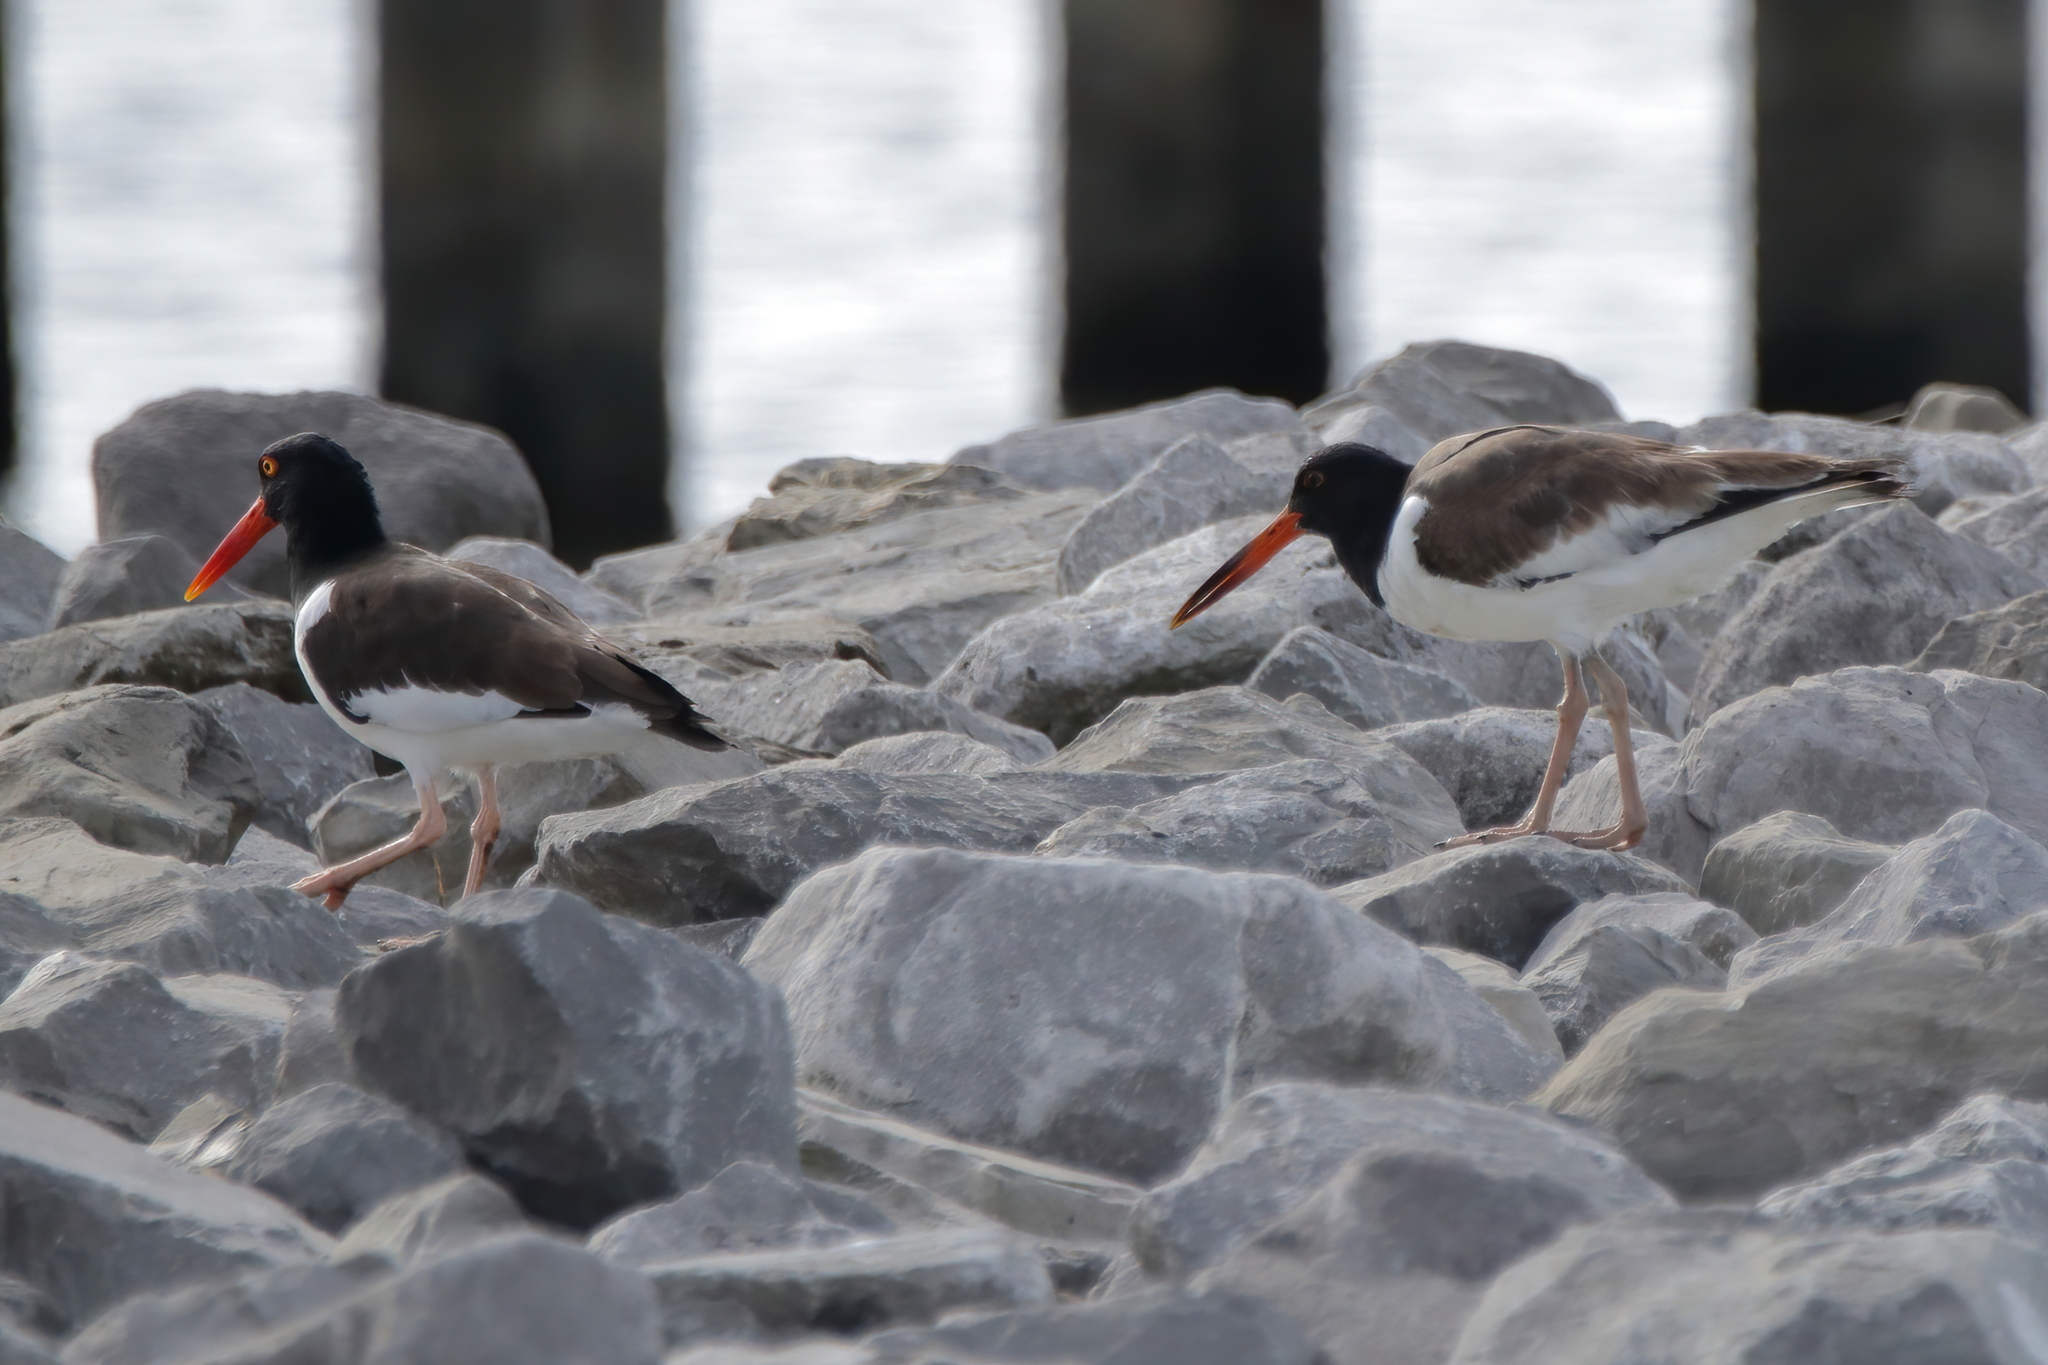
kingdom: Animalia
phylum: Chordata
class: Aves
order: Charadriiformes
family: Haematopodidae
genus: Haematopus
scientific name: Haematopus palliatus
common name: American oystercatcher
